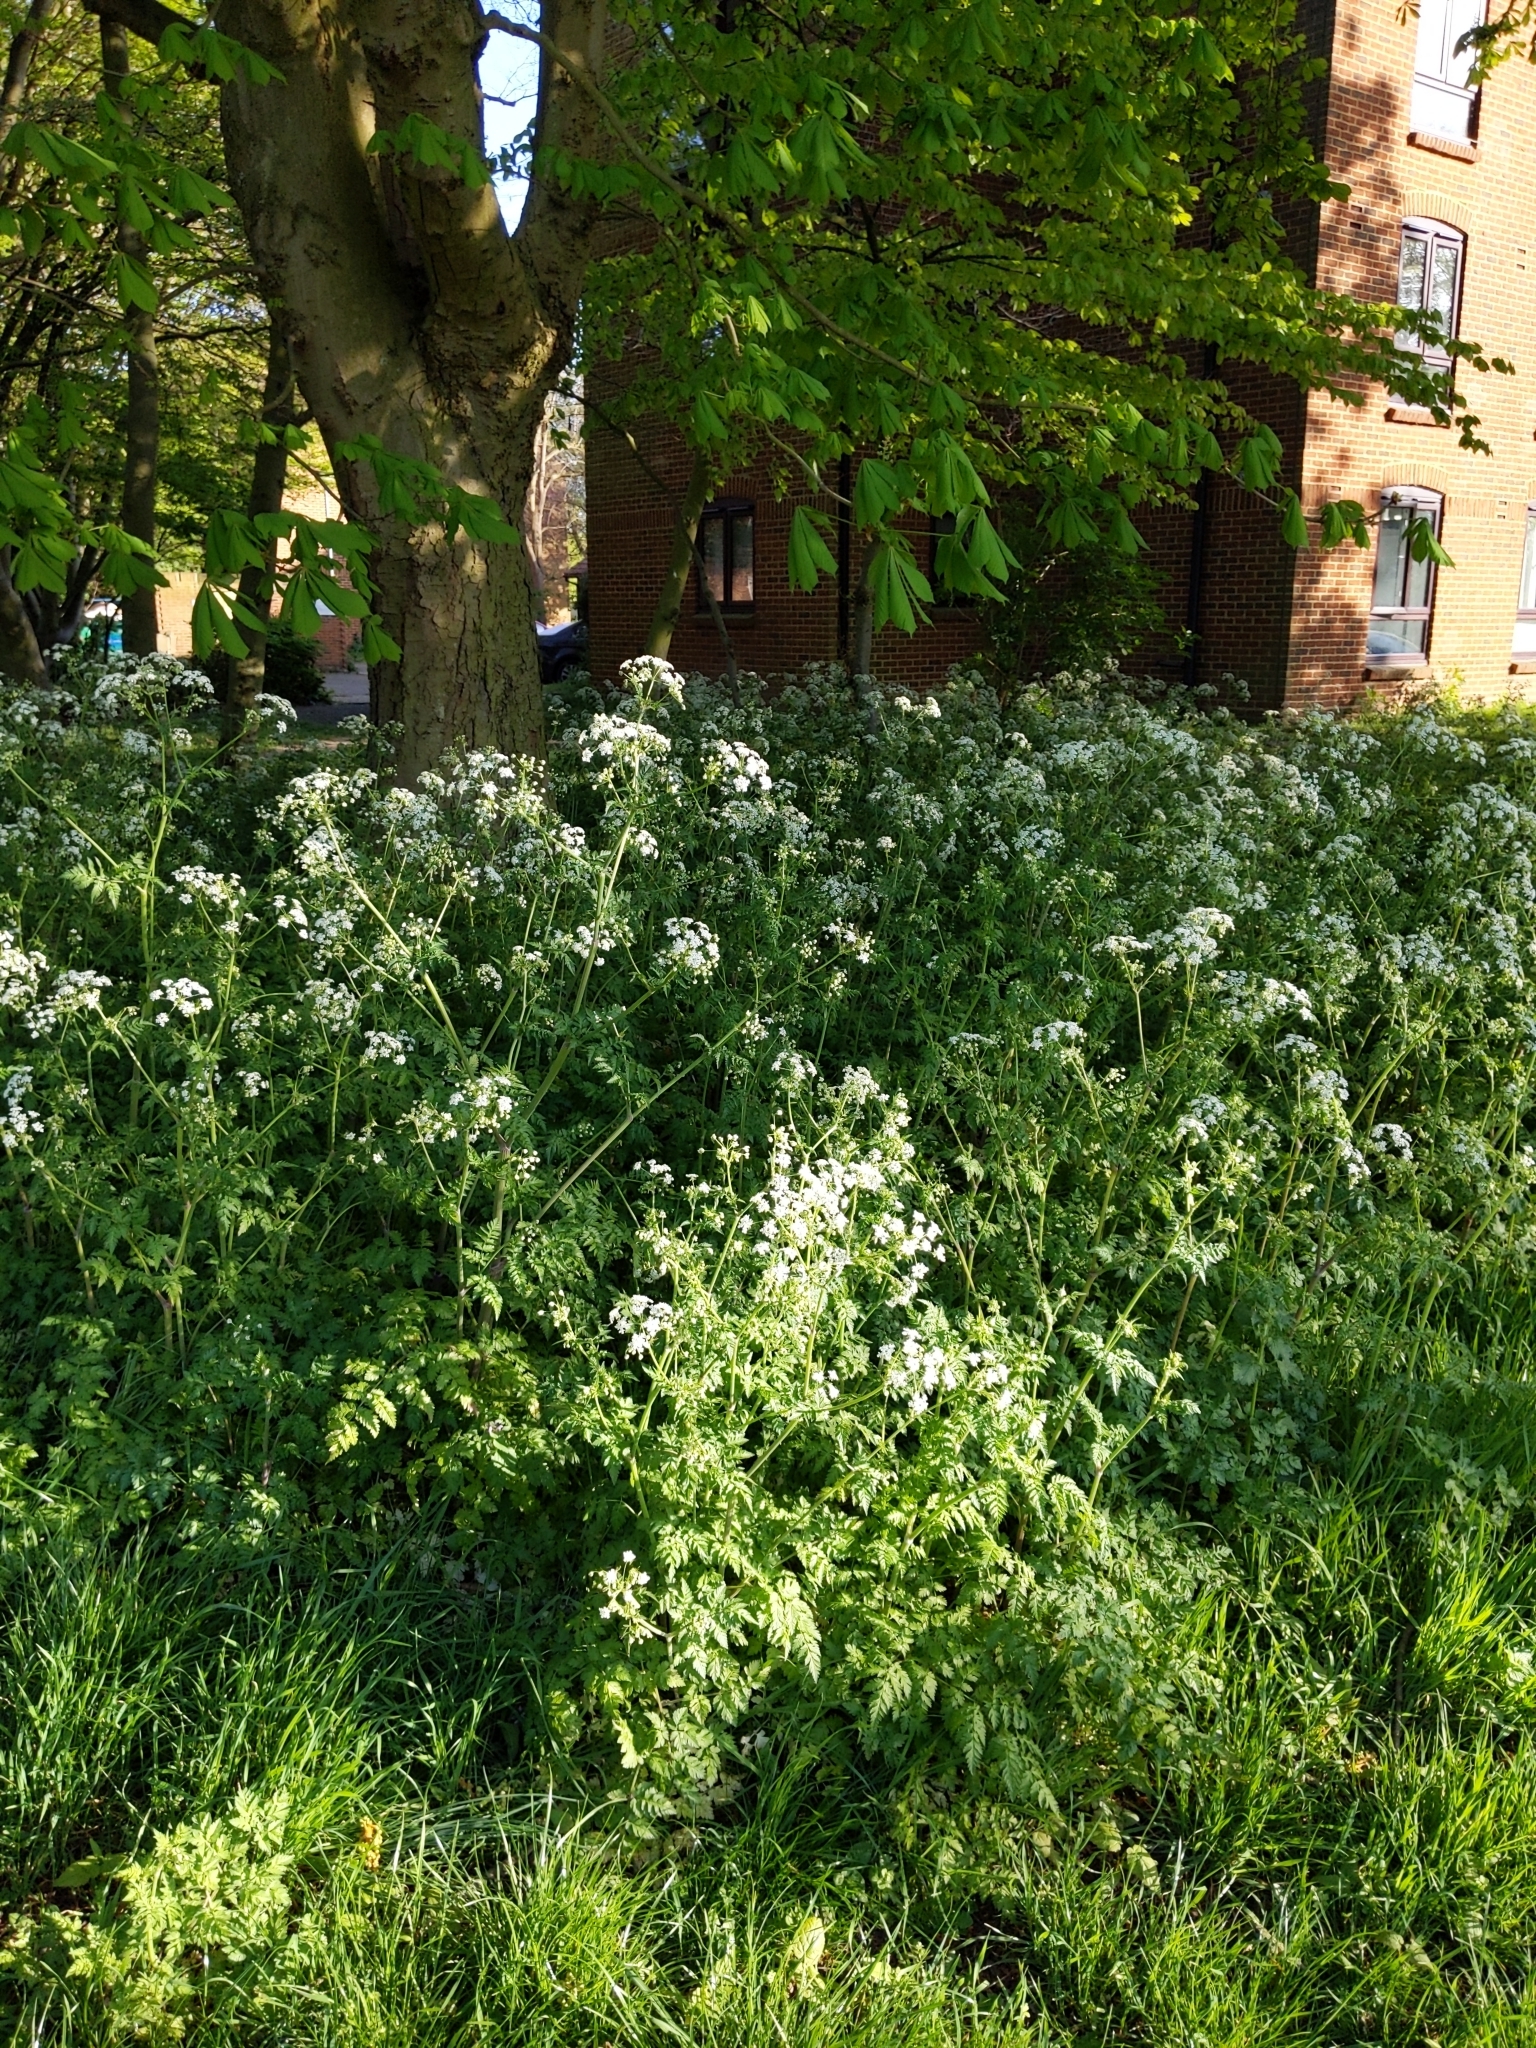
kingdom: Plantae
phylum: Tracheophyta
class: Magnoliopsida
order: Apiales
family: Apiaceae
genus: Anthriscus
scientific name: Anthriscus sylvestris
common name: Cow parsley
